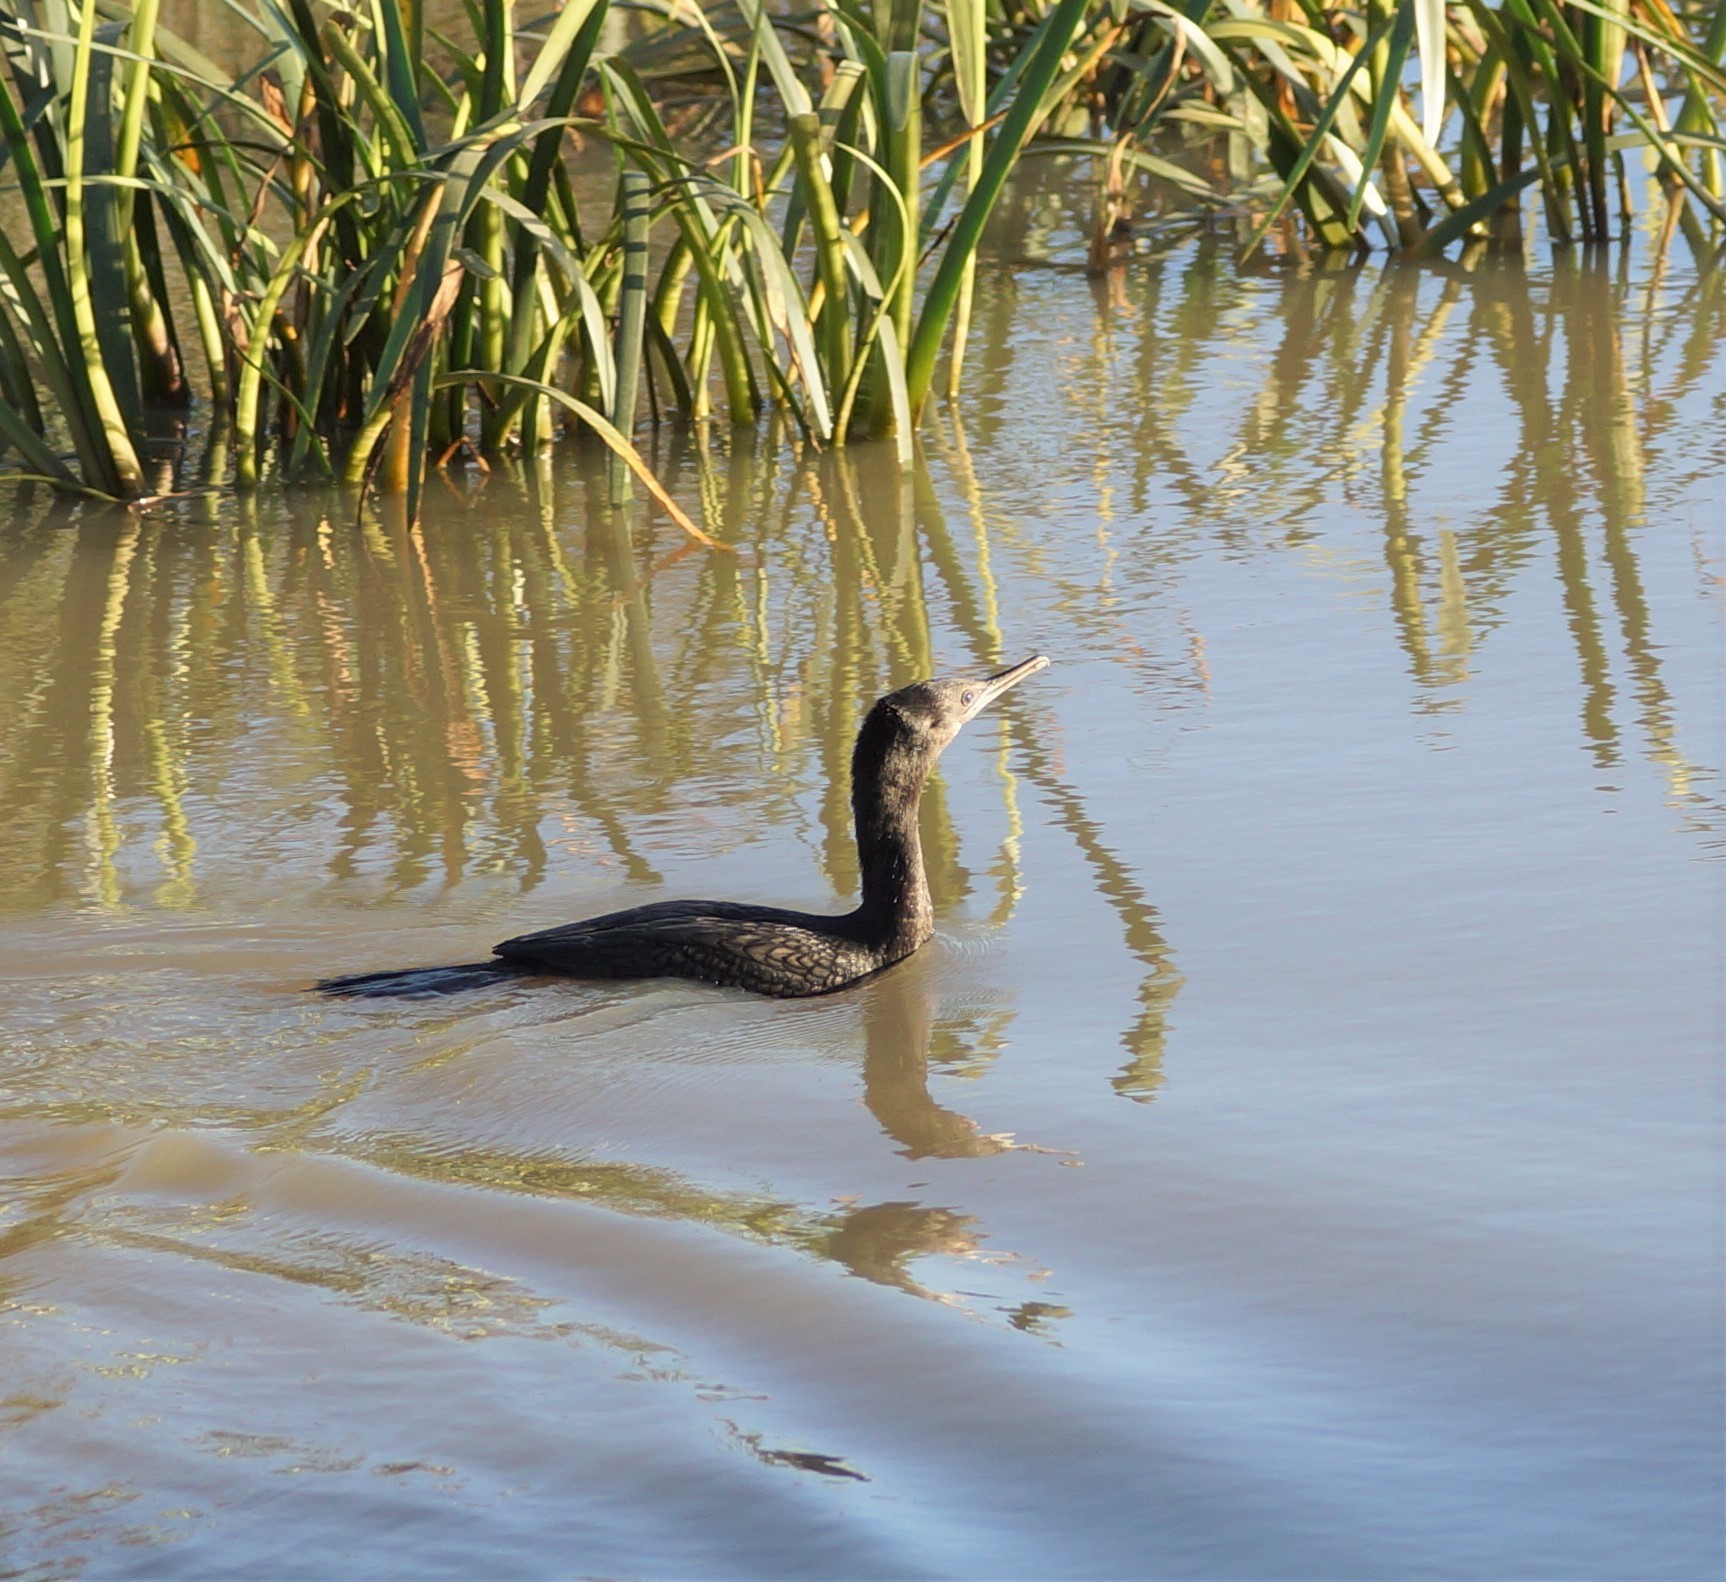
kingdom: Animalia
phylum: Chordata
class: Aves
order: Suliformes
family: Phalacrocoracidae
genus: Phalacrocorax
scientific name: Phalacrocorax sulcirostris
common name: Little black cormorant
